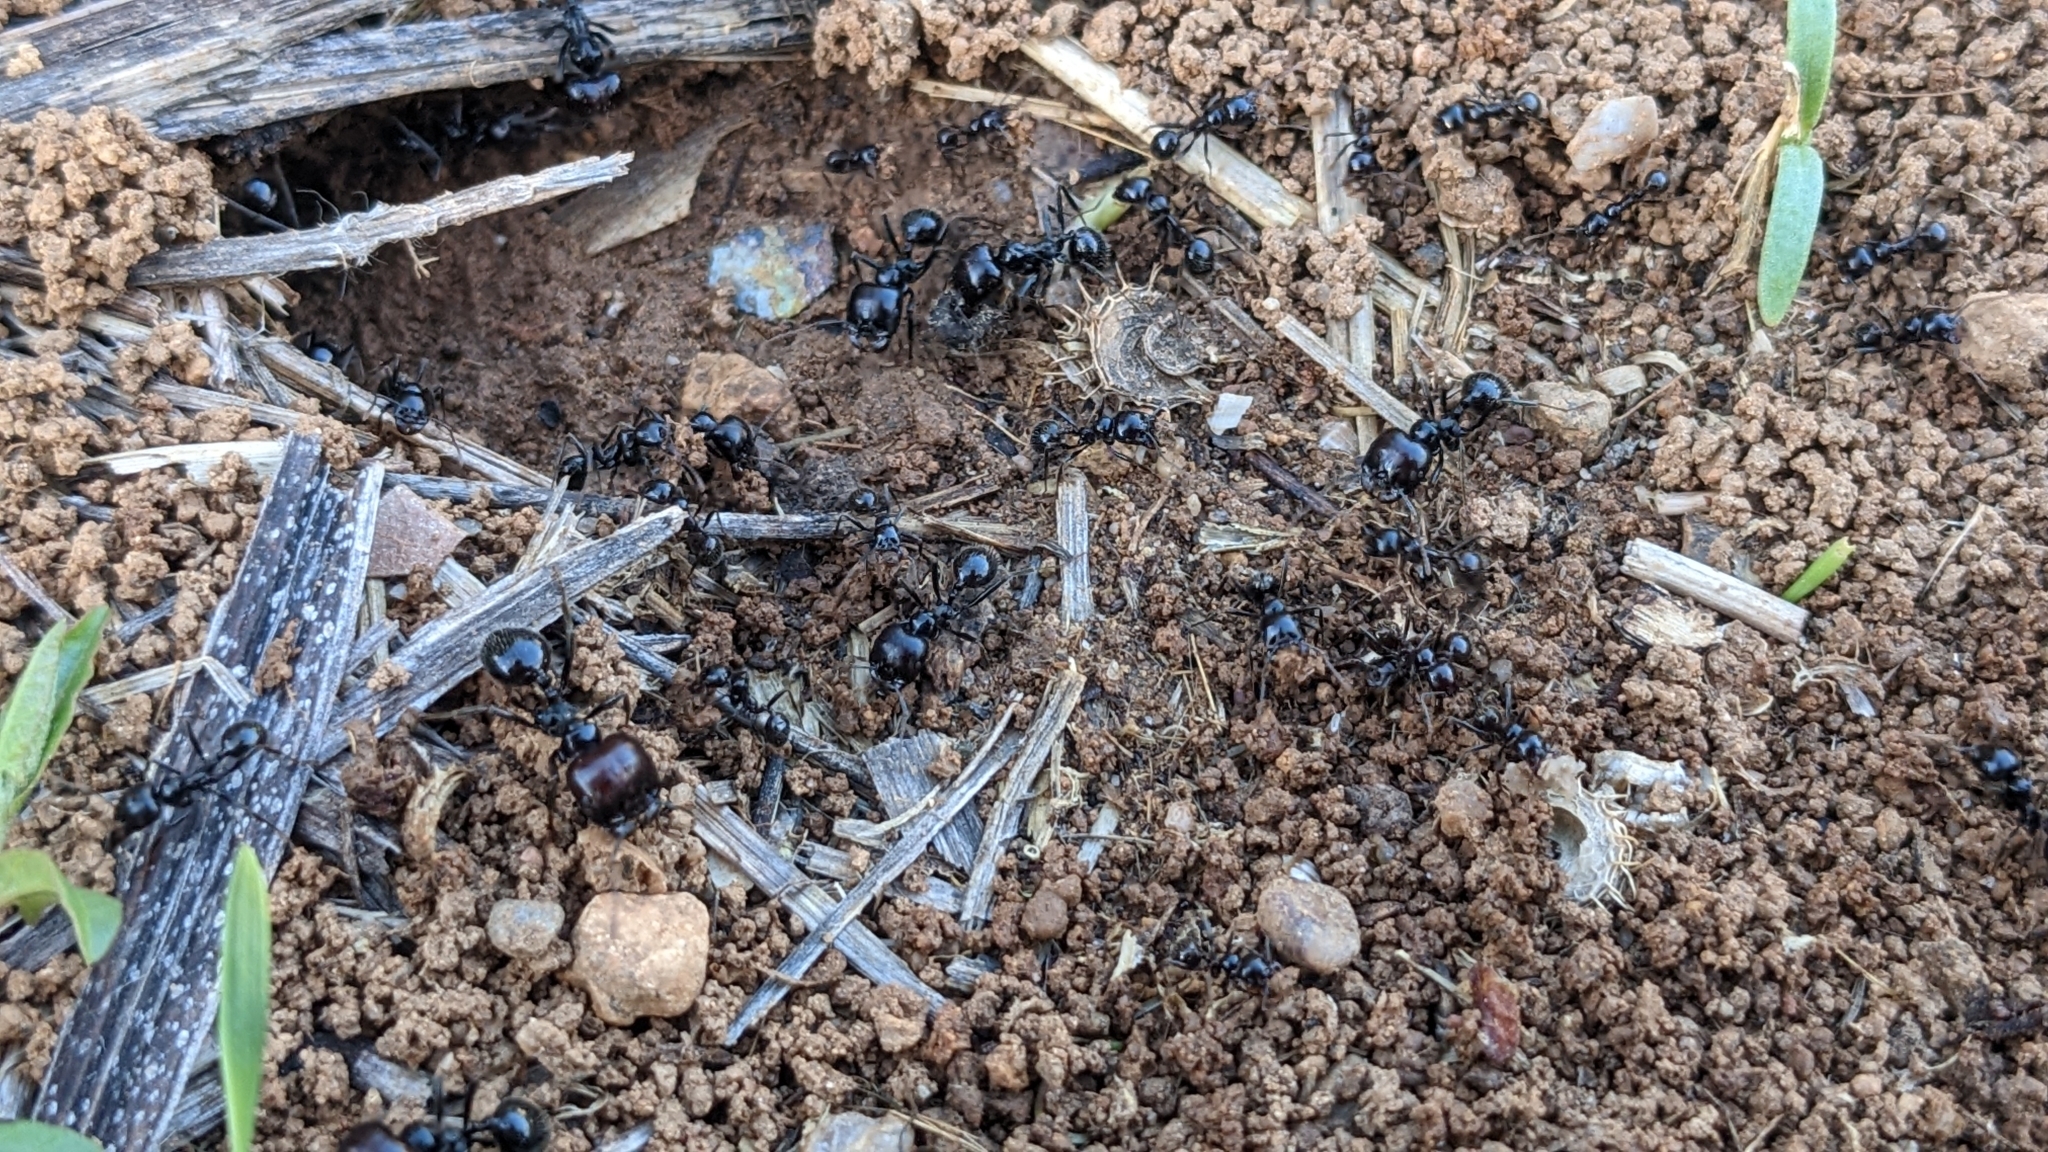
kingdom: Animalia
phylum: Arthropoda
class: Insecta
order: Hymenoptera
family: Formicidae
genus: Messor
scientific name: Messor barbarus
